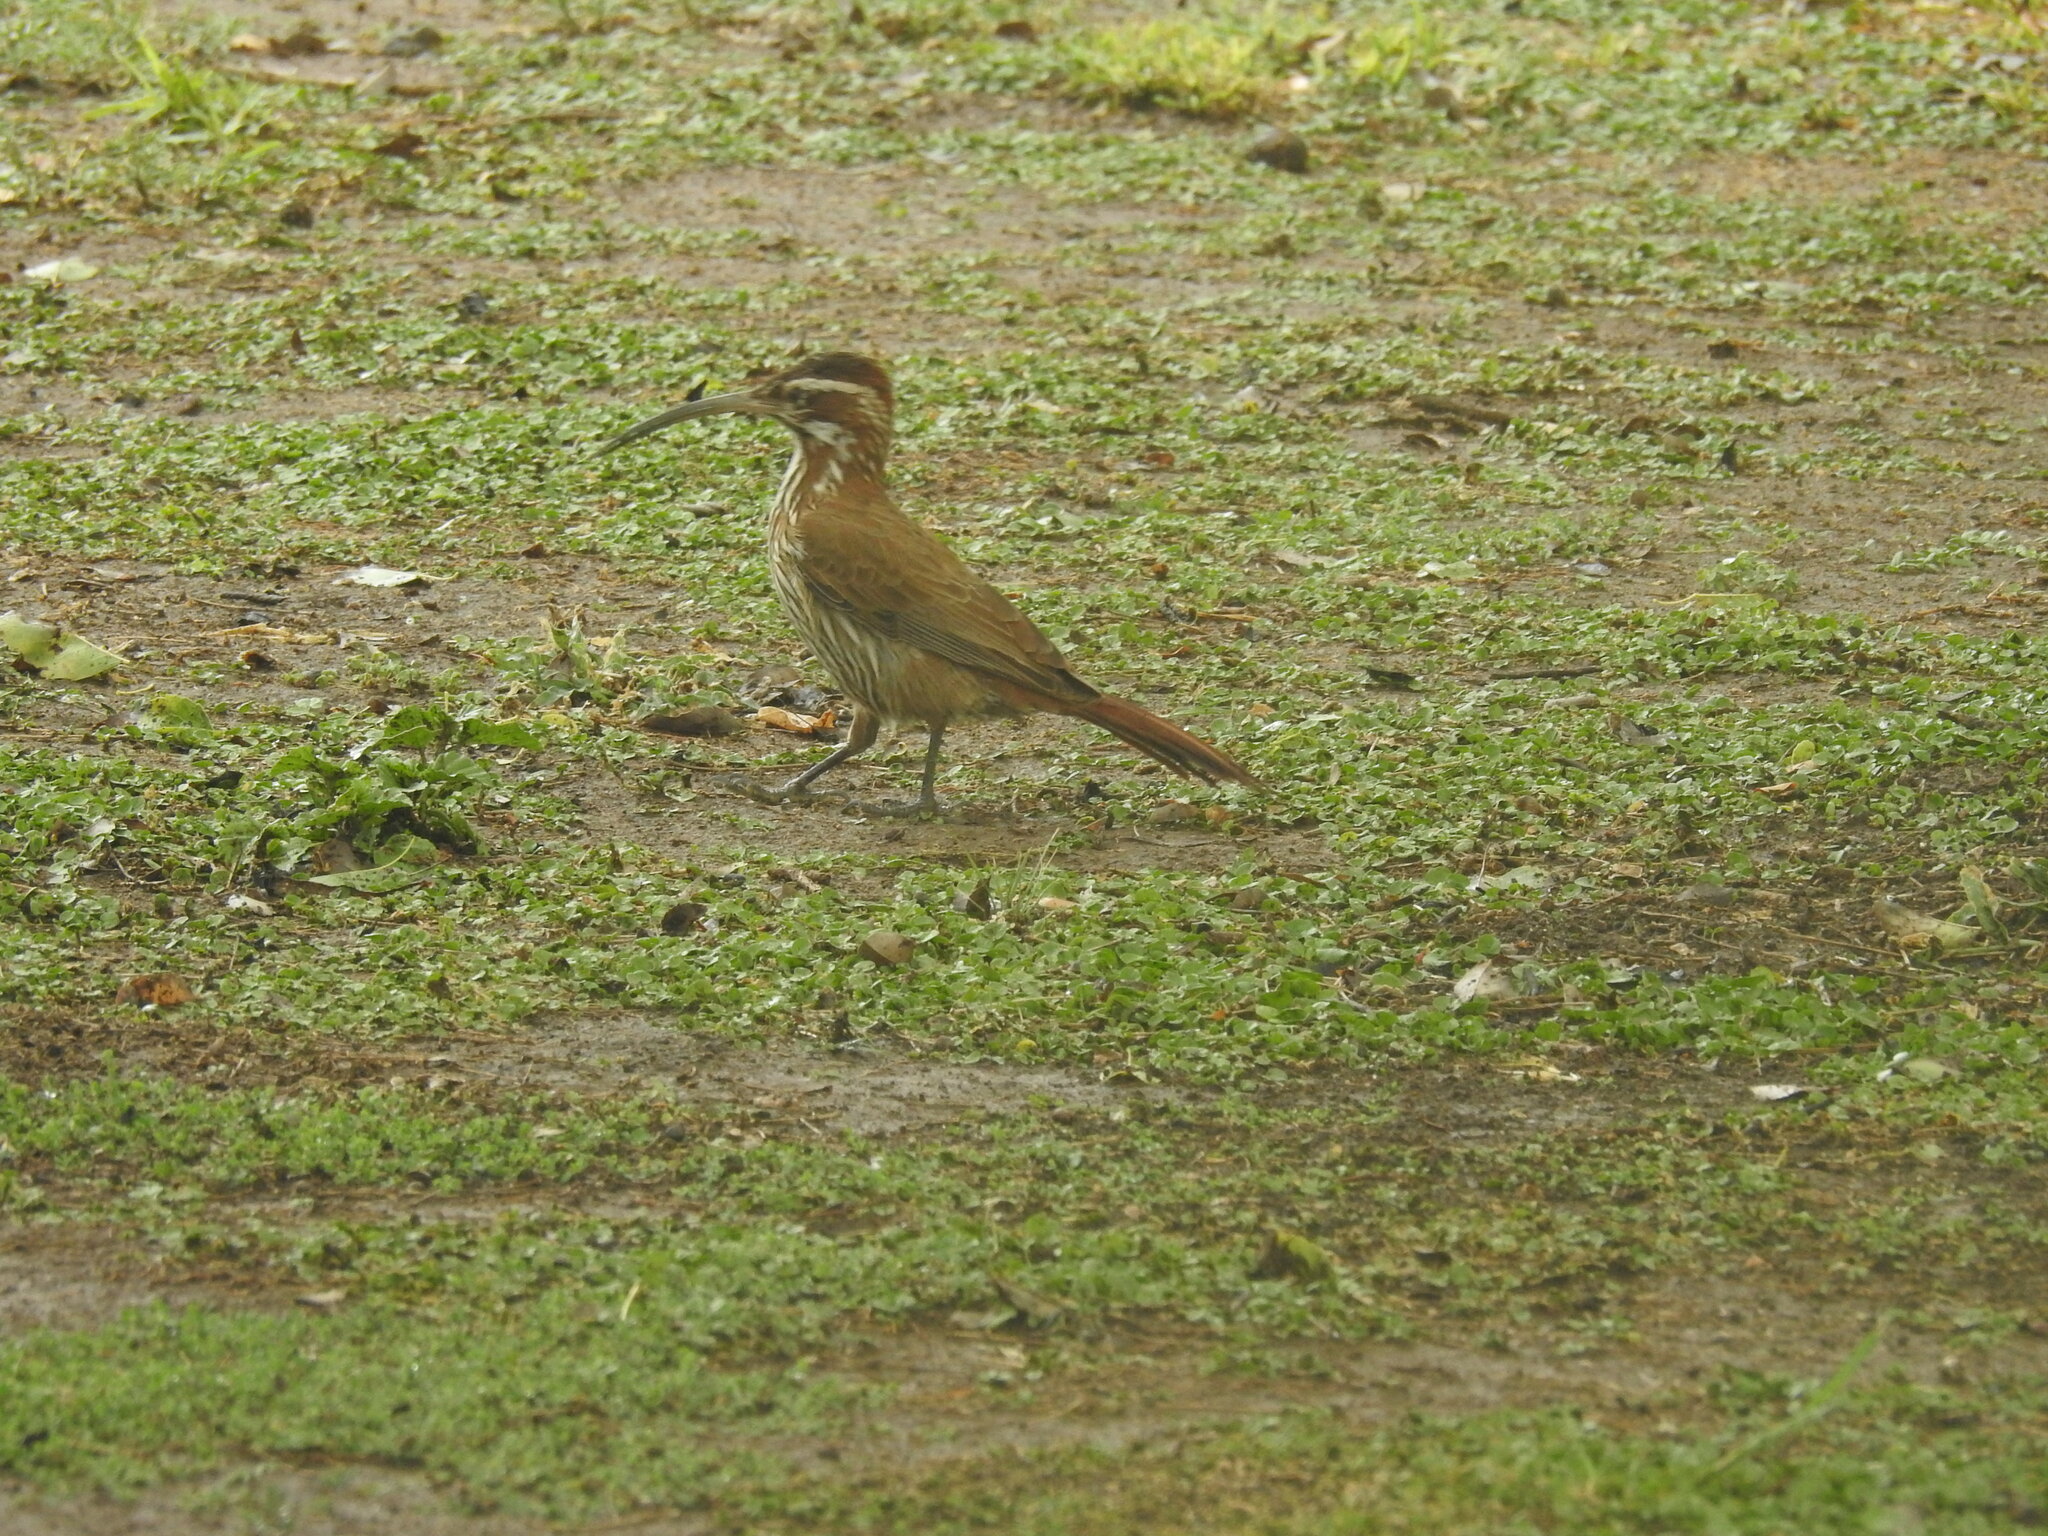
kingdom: Animalia
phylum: Chordata
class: Aves
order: Passeriformes
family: Furnariidae
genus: Drymornis
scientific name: Drymornis bridgesii
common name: Scimitar-billed woodcreeper
